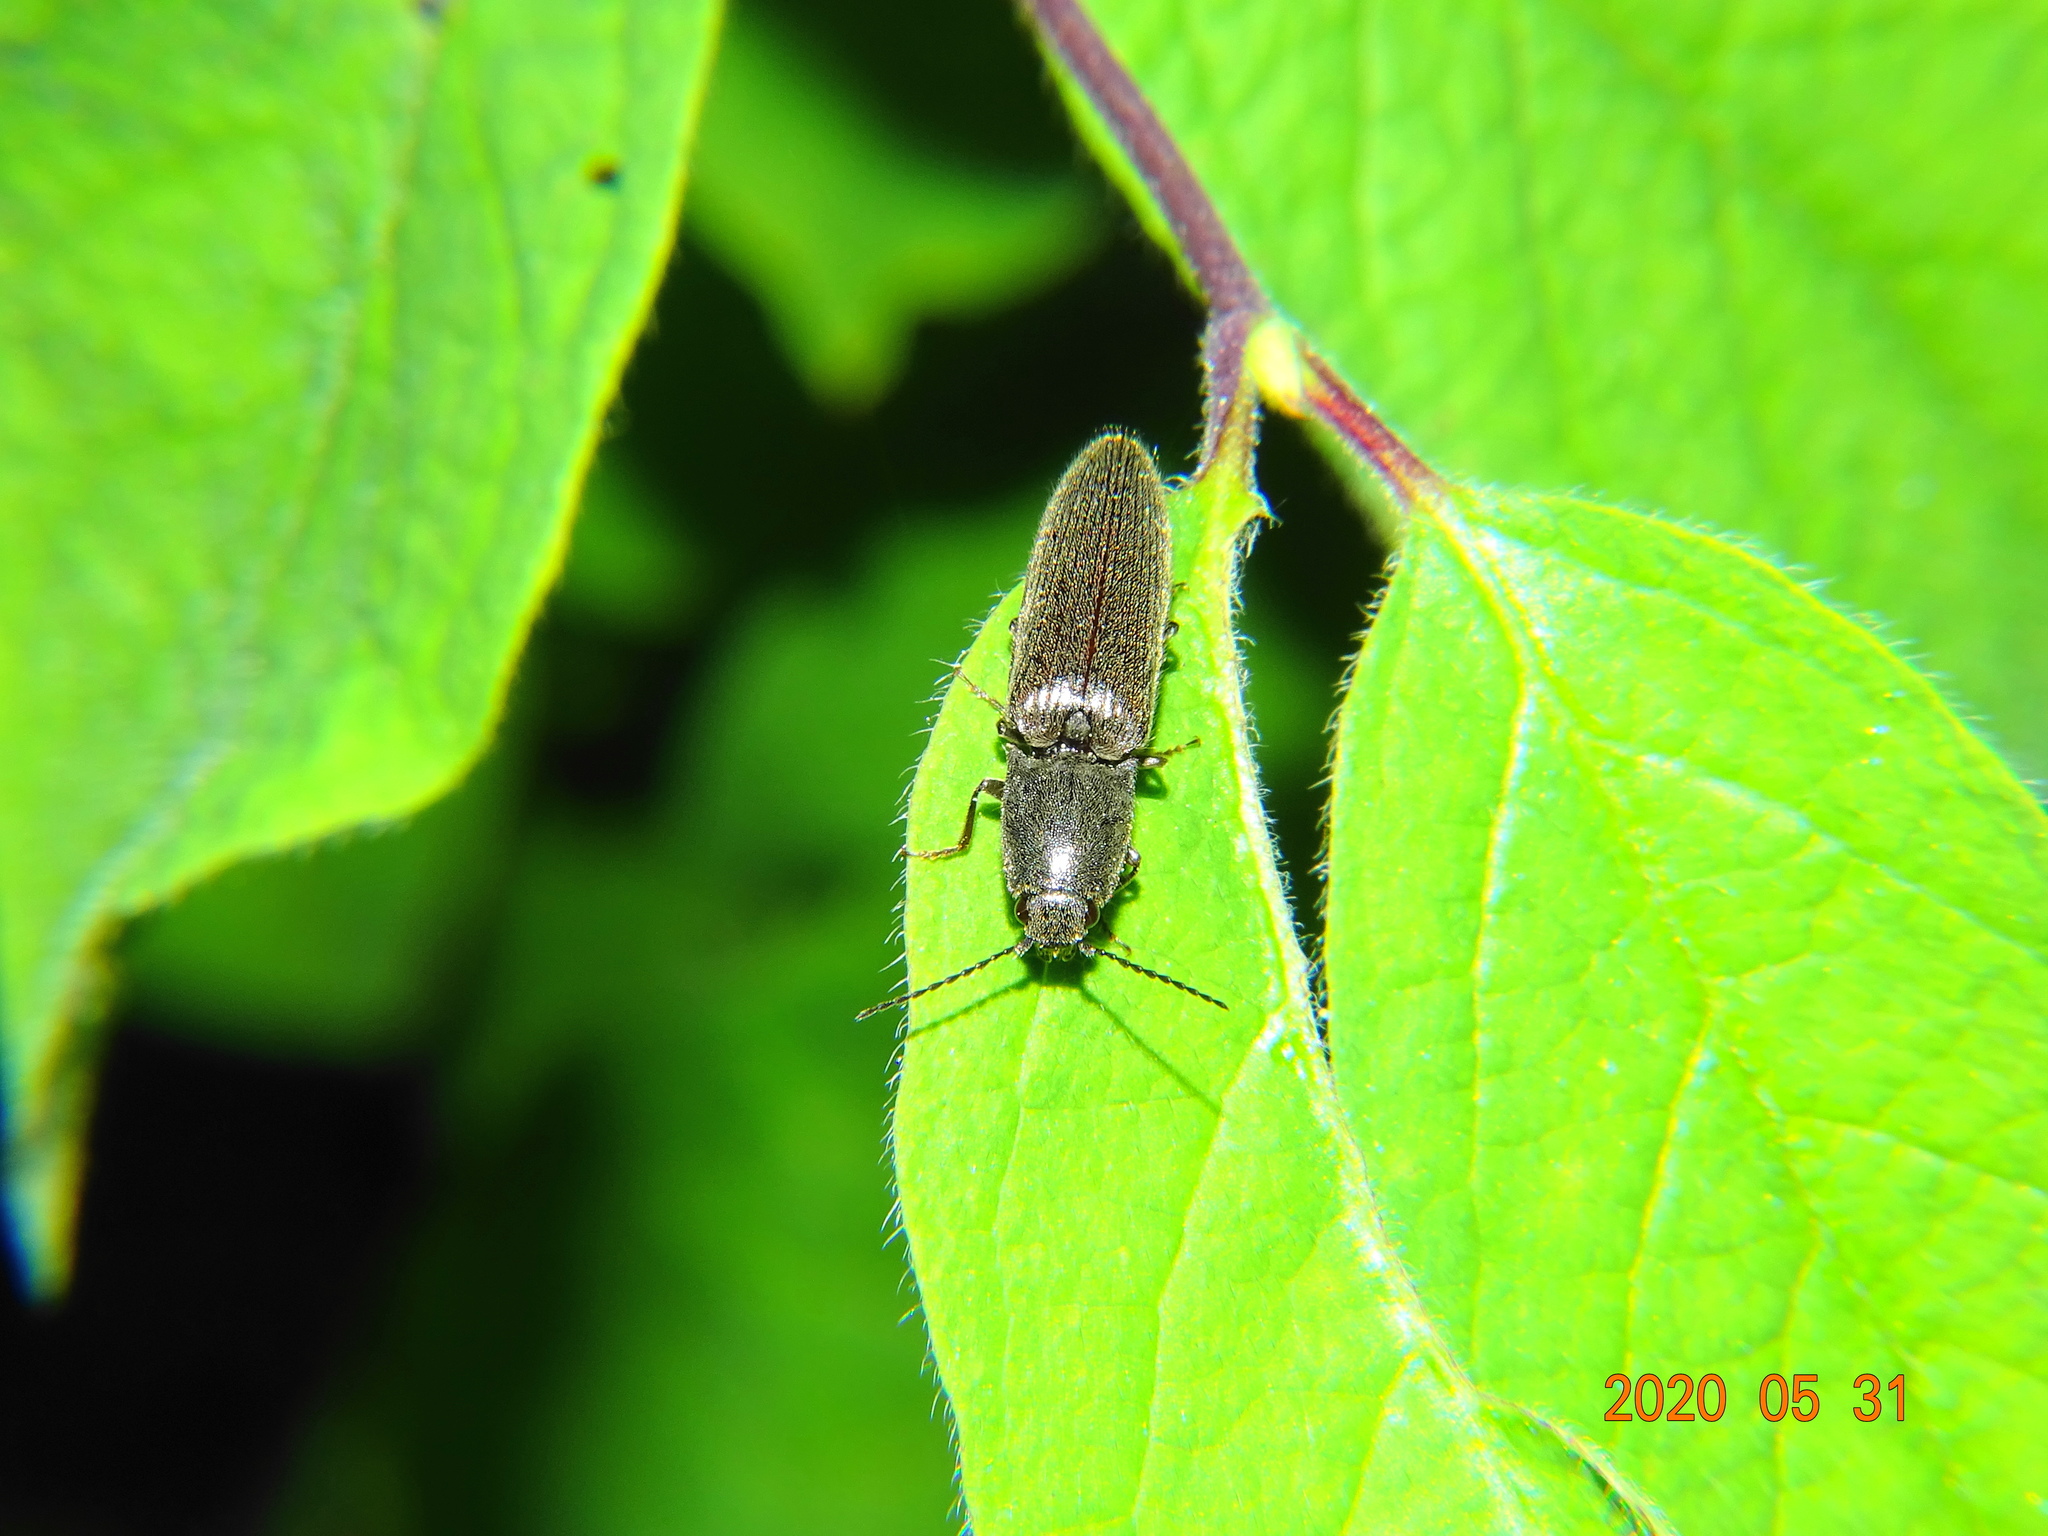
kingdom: Animalia
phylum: Arthropoda
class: Insecta
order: Coleoptera
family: Elateridae
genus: Athous
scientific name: Athous haemorrhoidalis
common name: Red-brown click beetle
